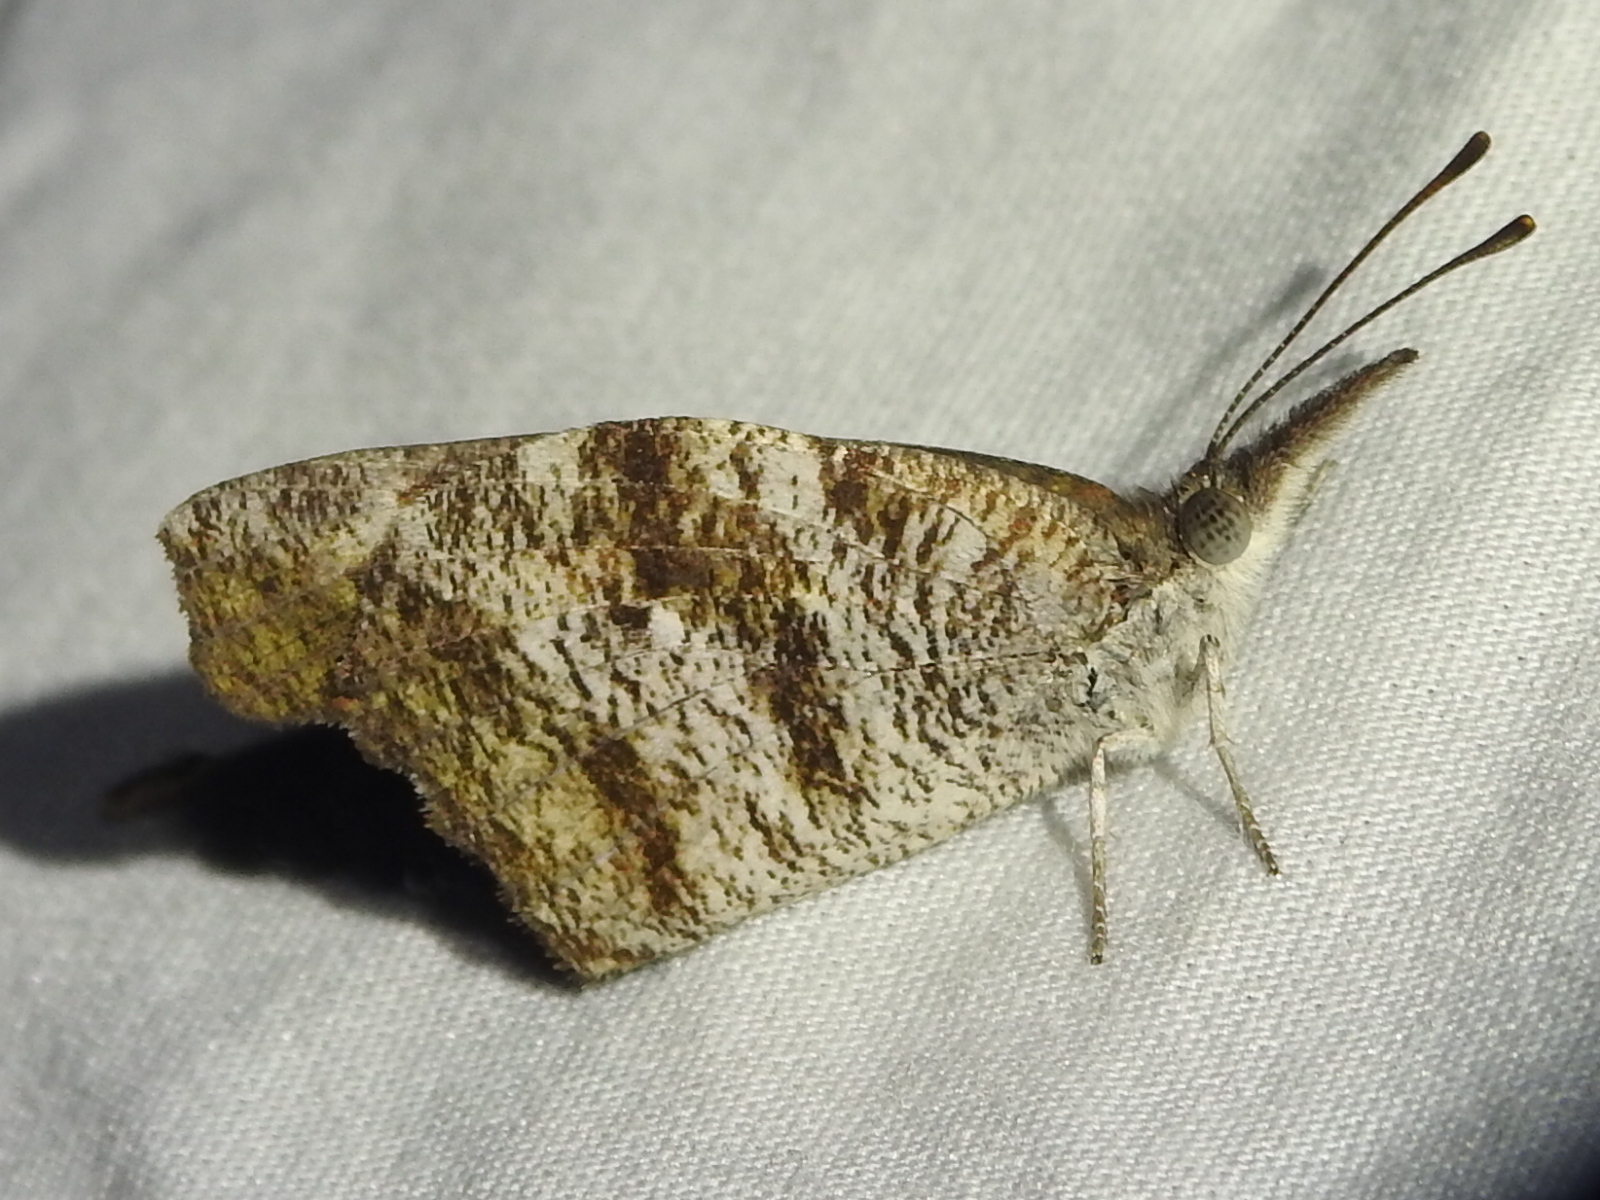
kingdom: Animalia
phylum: Arthropoda
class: Insecta
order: Lepidoptera
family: Nymphalidae
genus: Libytheana
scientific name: Libytheana carinenta
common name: American snout
